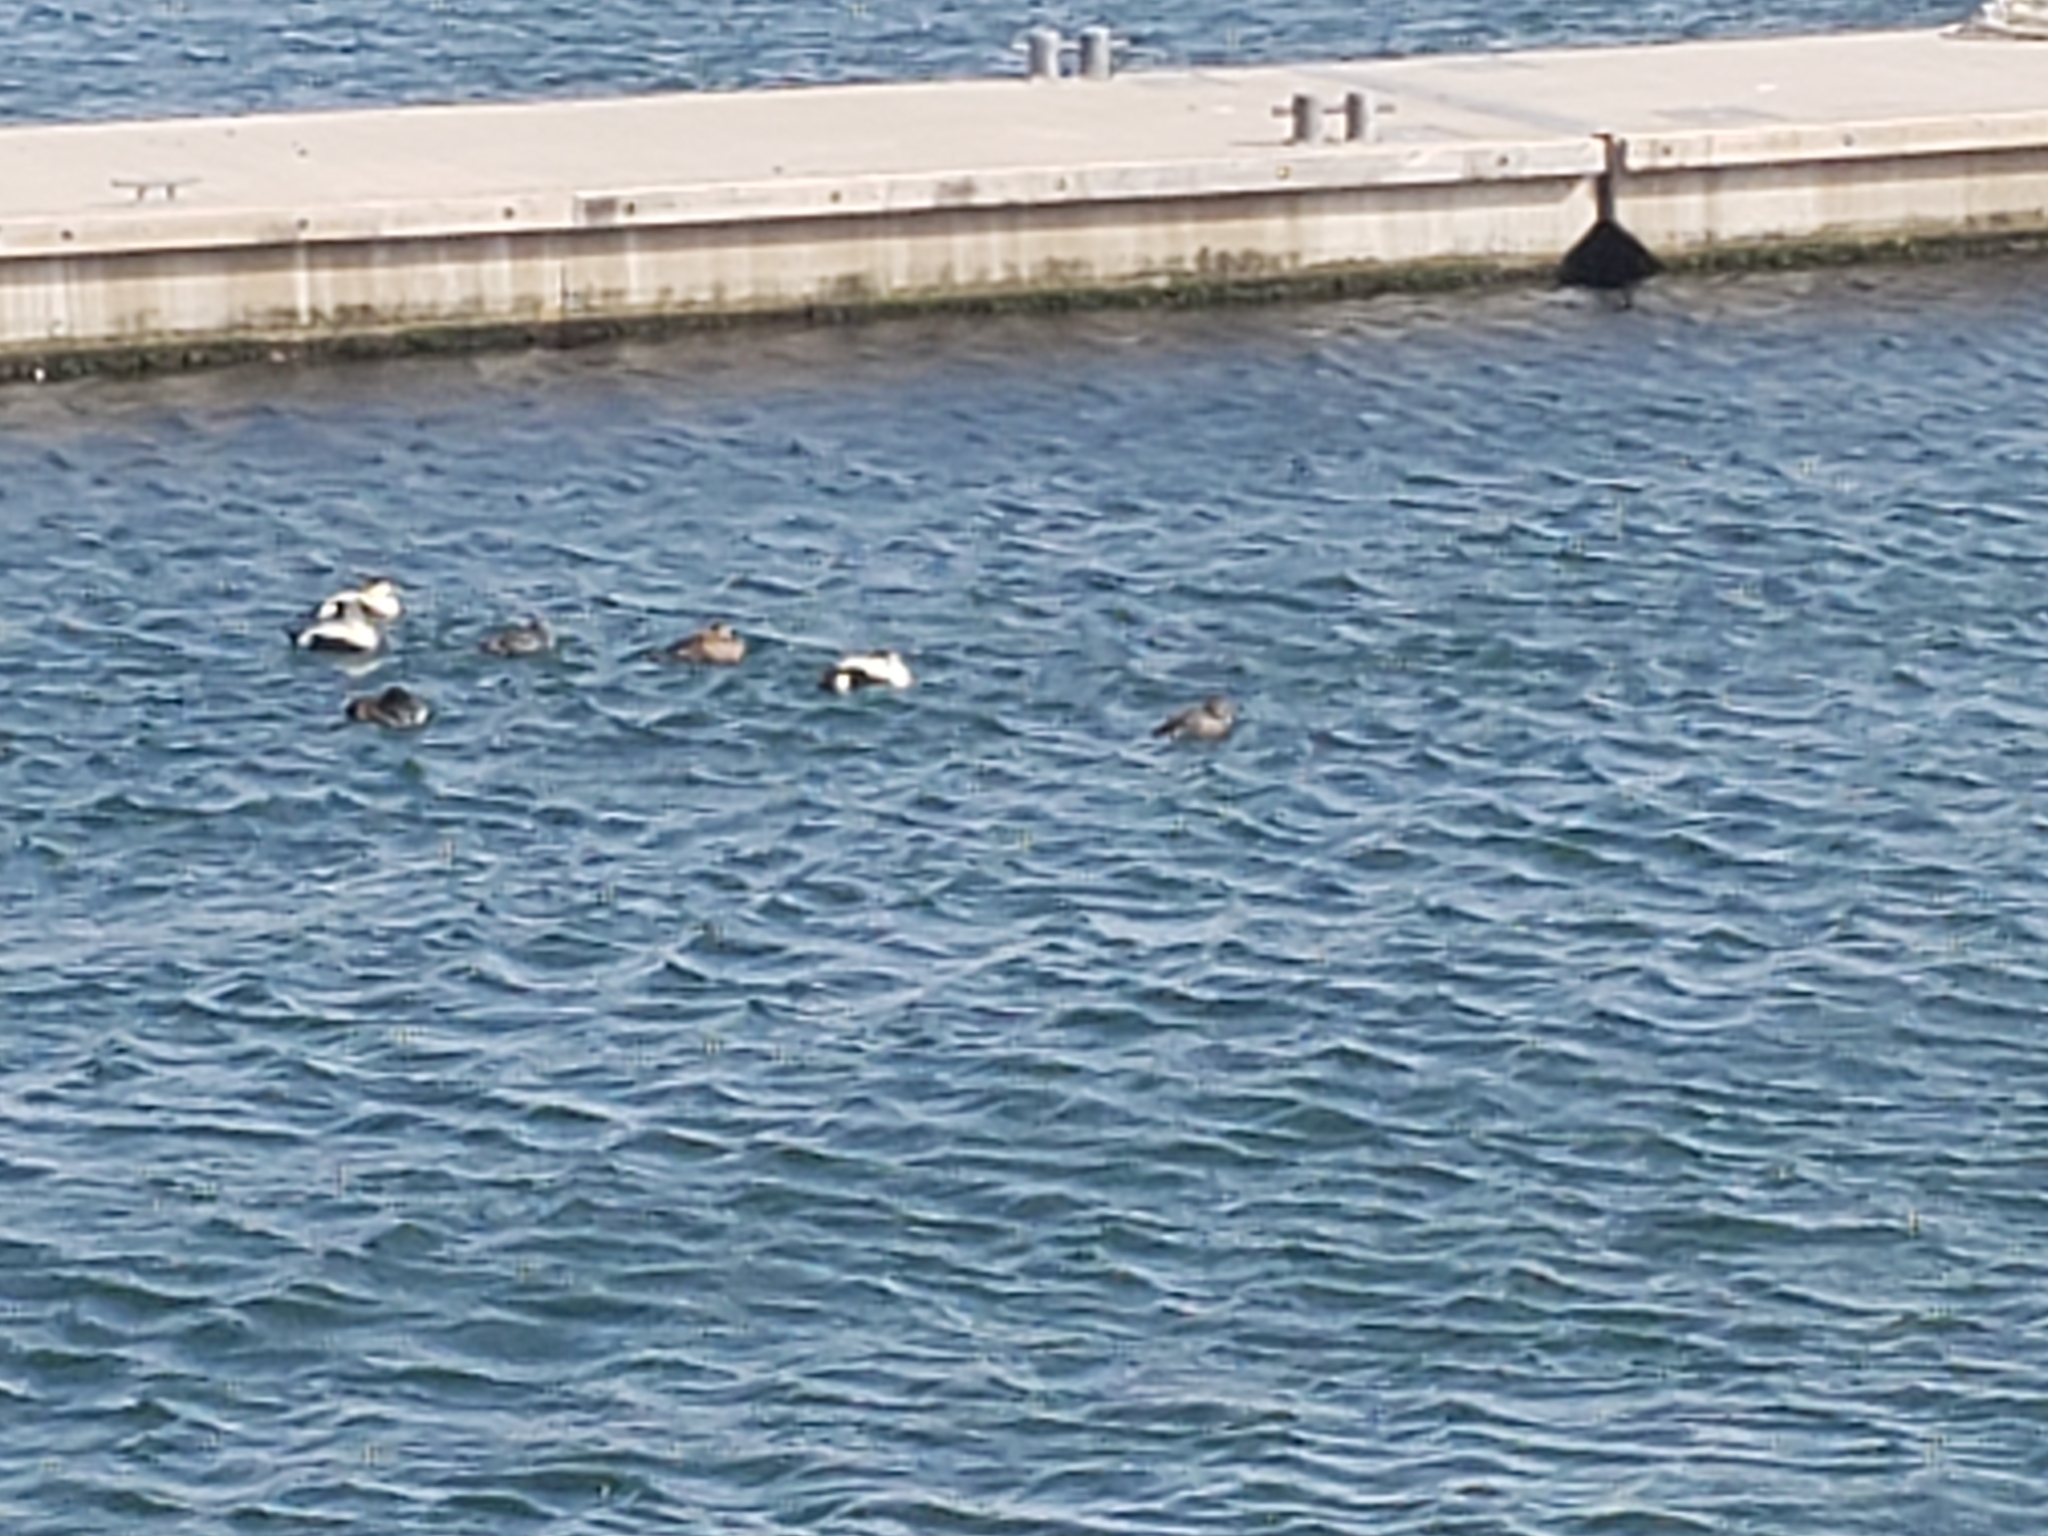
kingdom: Animalia
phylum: Chordata
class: Aves
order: Anseriformes
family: Anatidae
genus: Somateria
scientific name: Somateria mollissima
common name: Common eider
